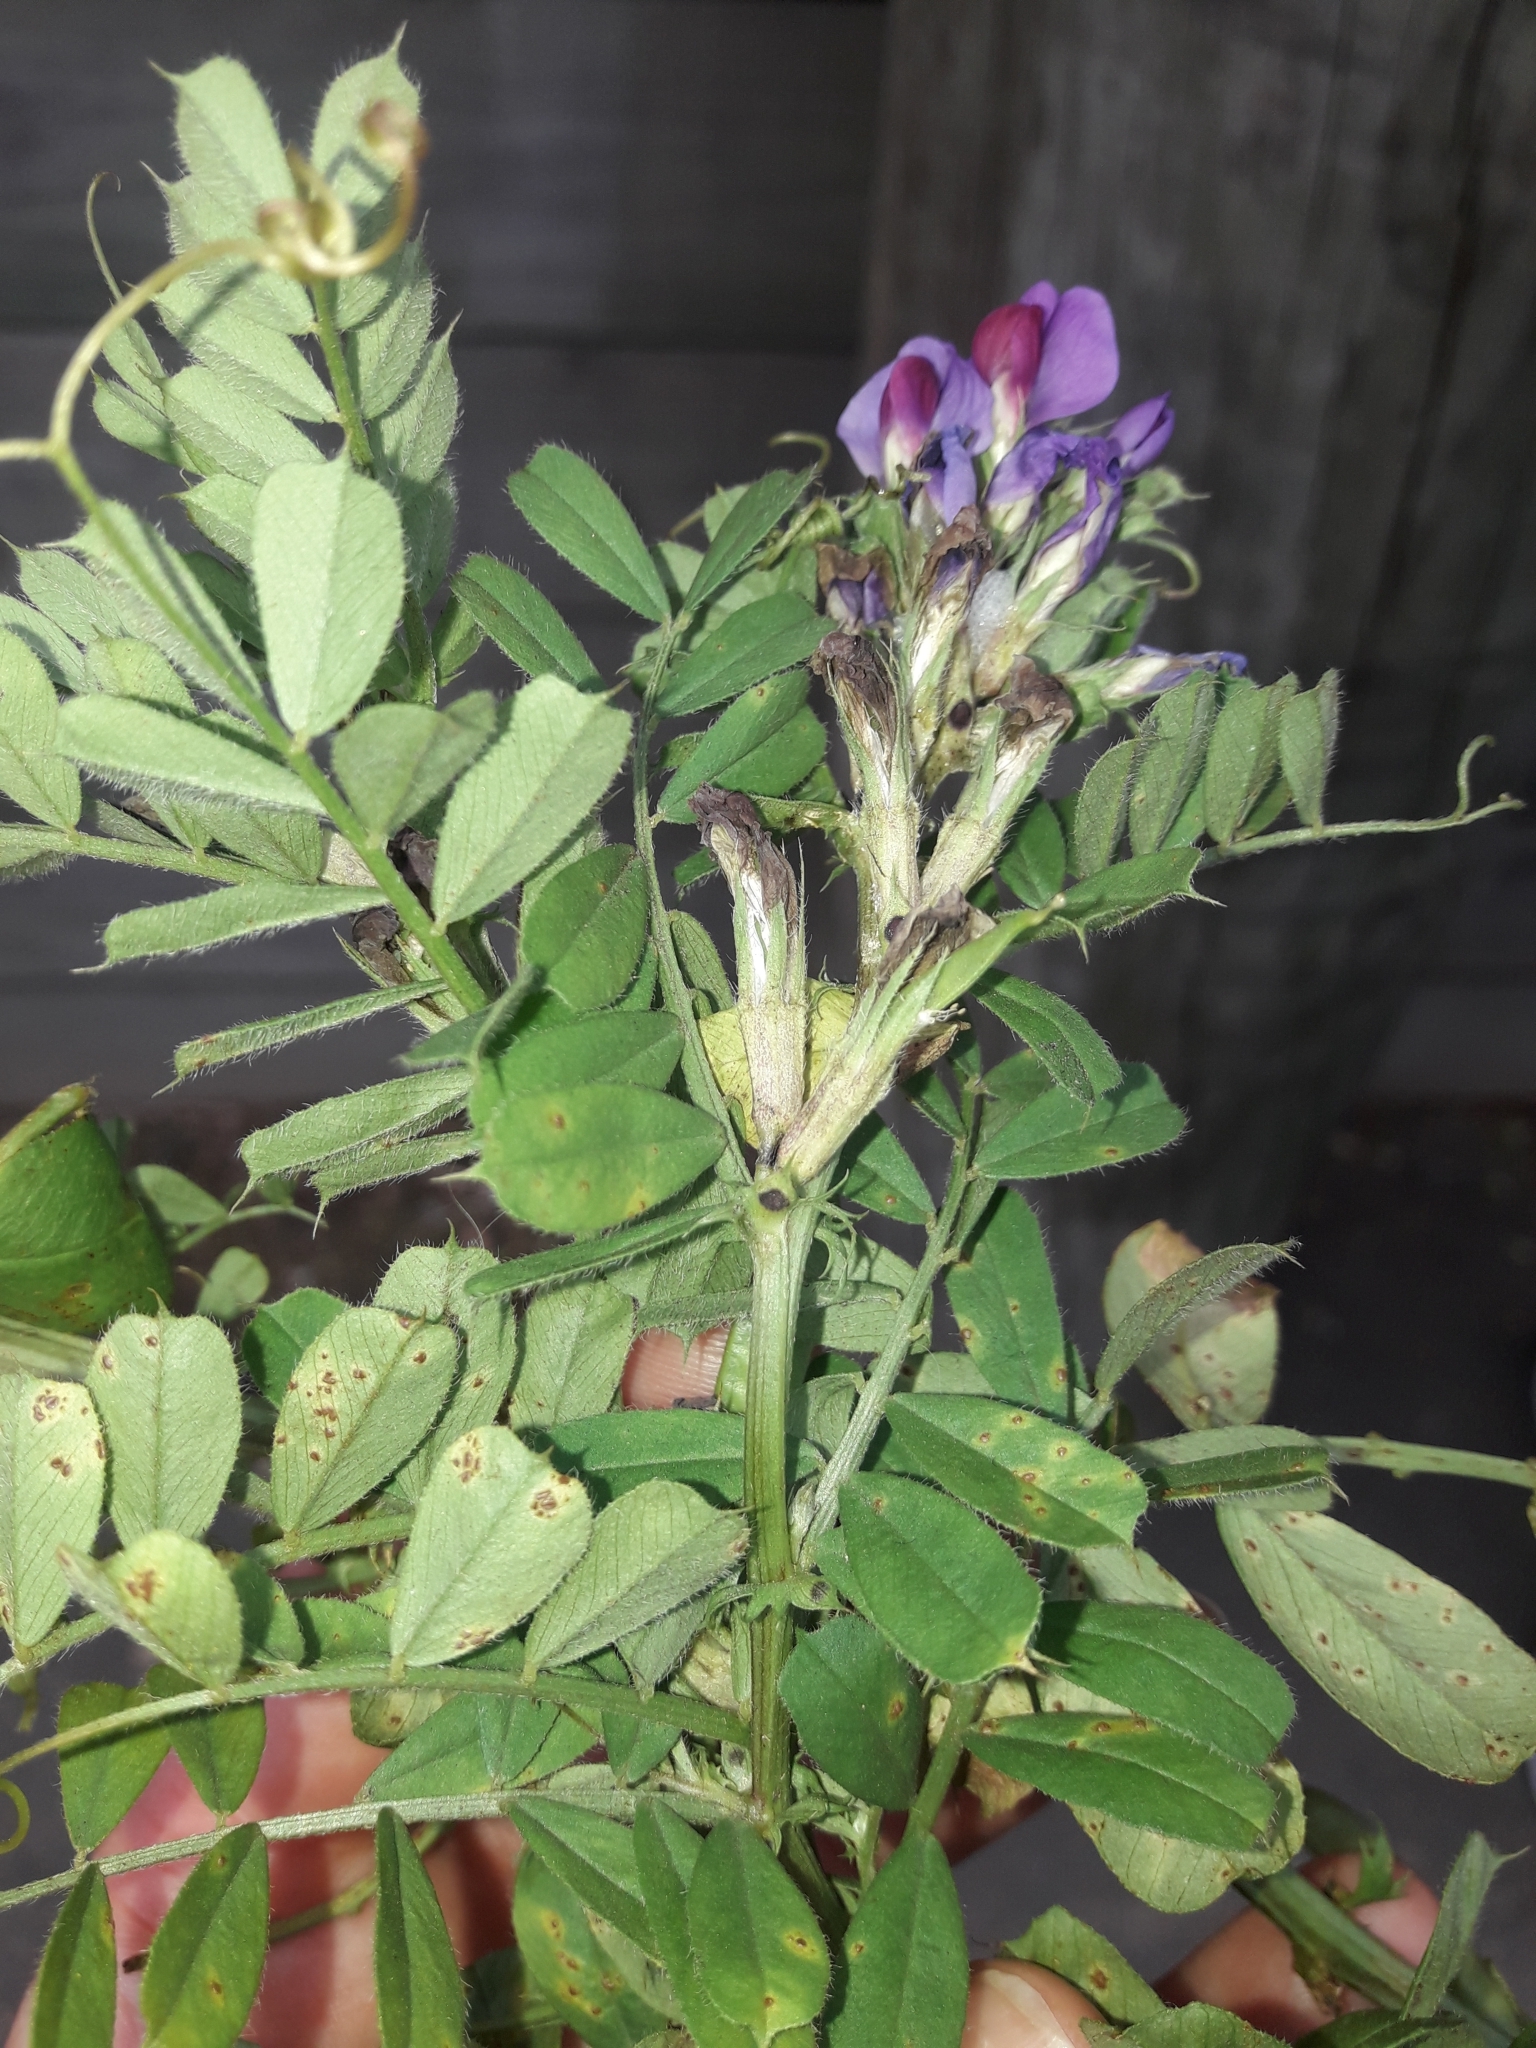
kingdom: Plantae
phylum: Tracheophyta
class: Magnoliopsida
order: Fabales
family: Fabaceae
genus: Vicia
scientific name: Vicia sativa
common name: Garden vetch
